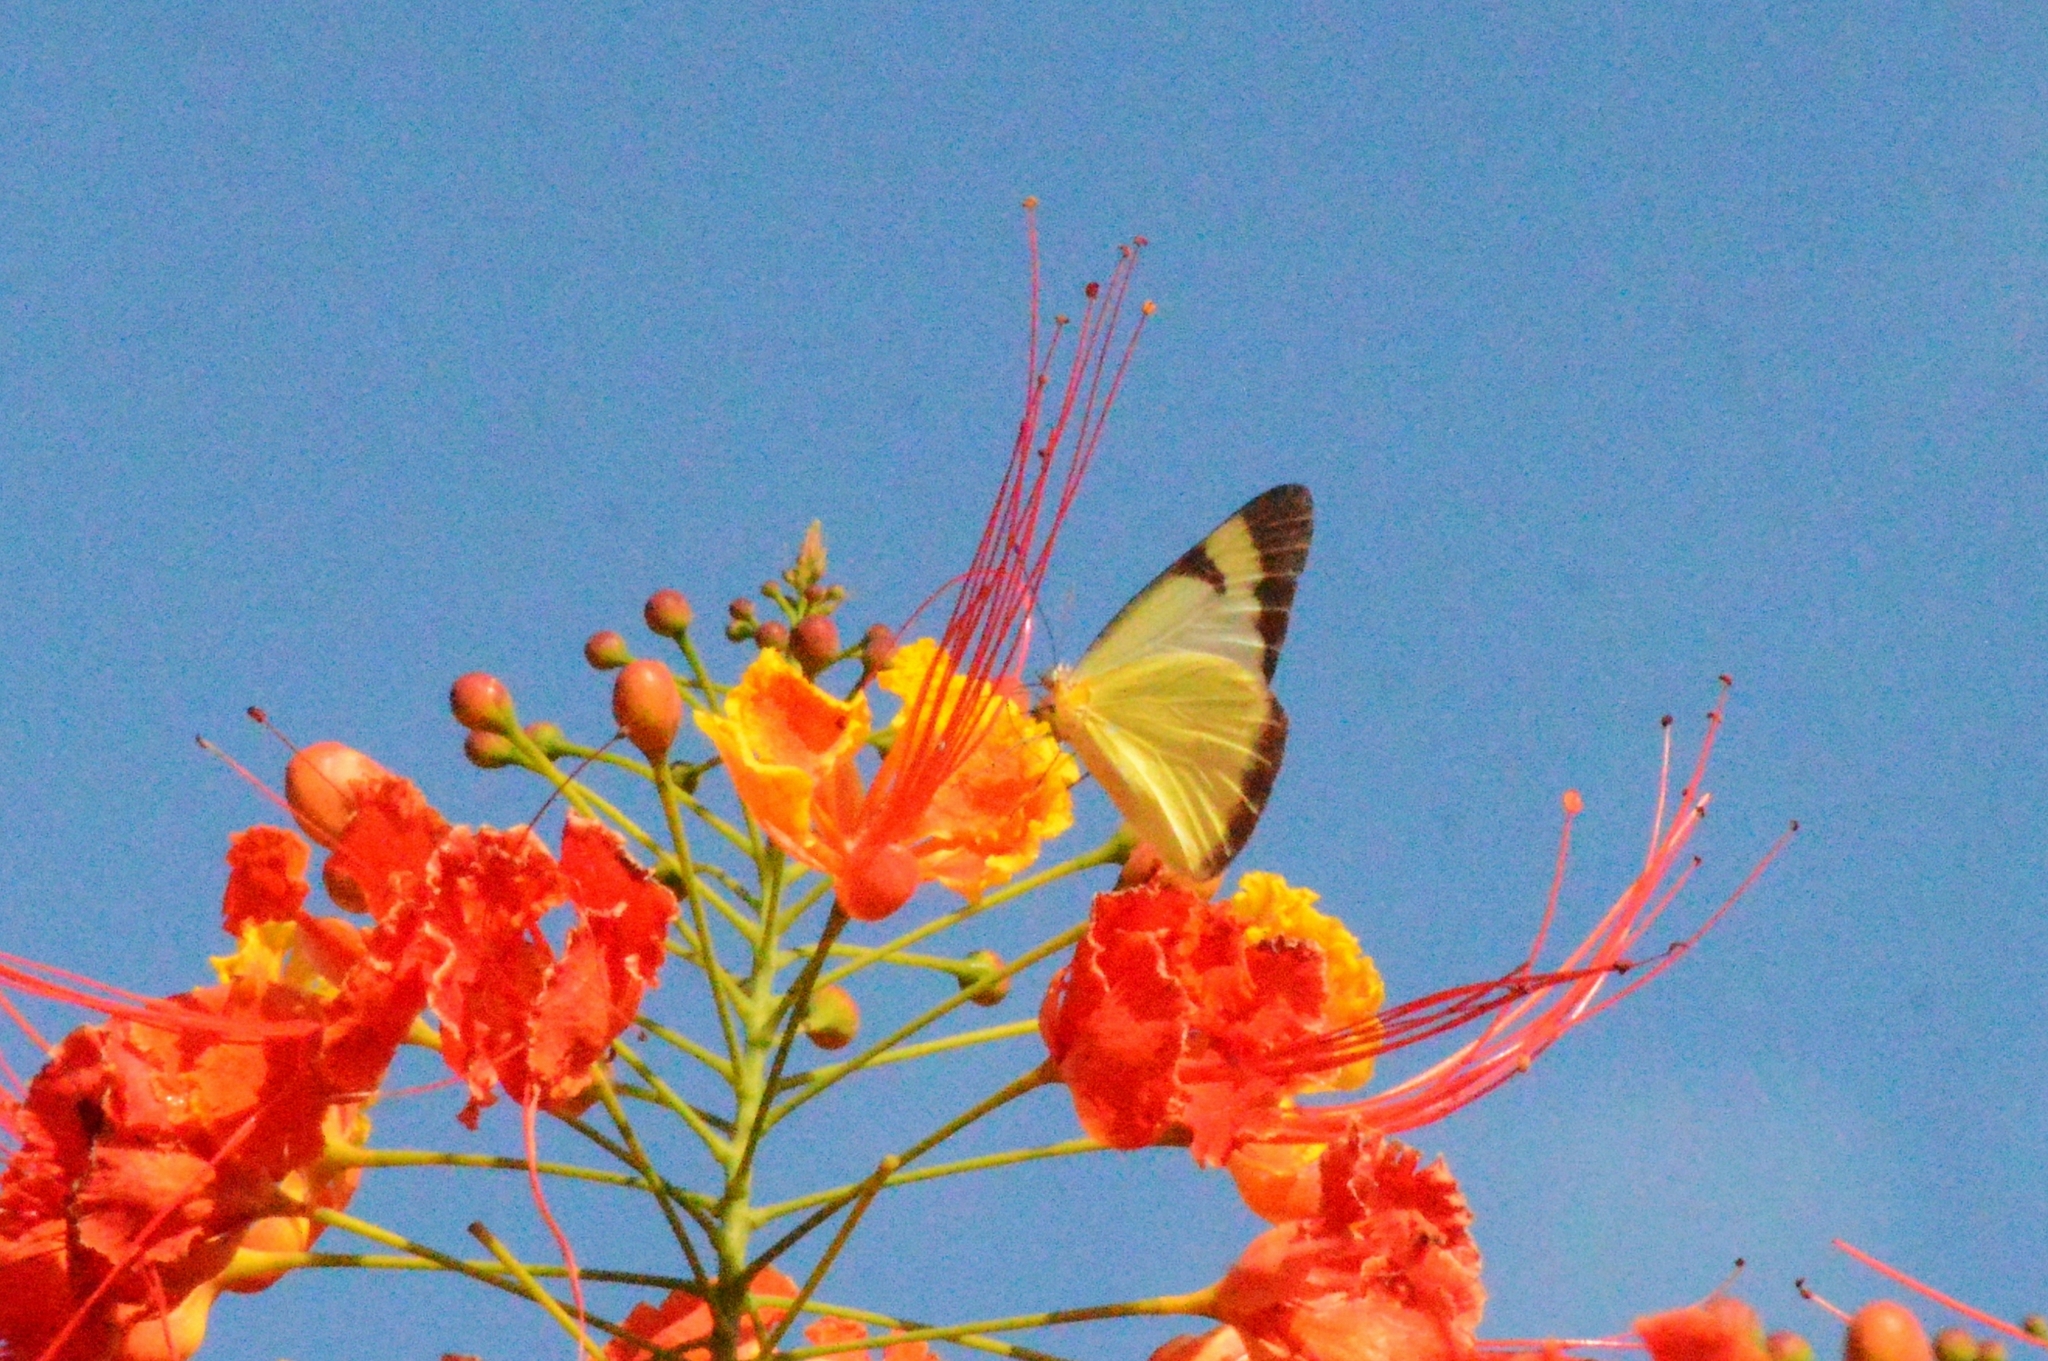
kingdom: Animalia
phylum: Arthropoda
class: Insecta
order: Lepidoptera
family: Pieridae
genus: Melete
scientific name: Melete lycimnia
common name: Common melwhite
